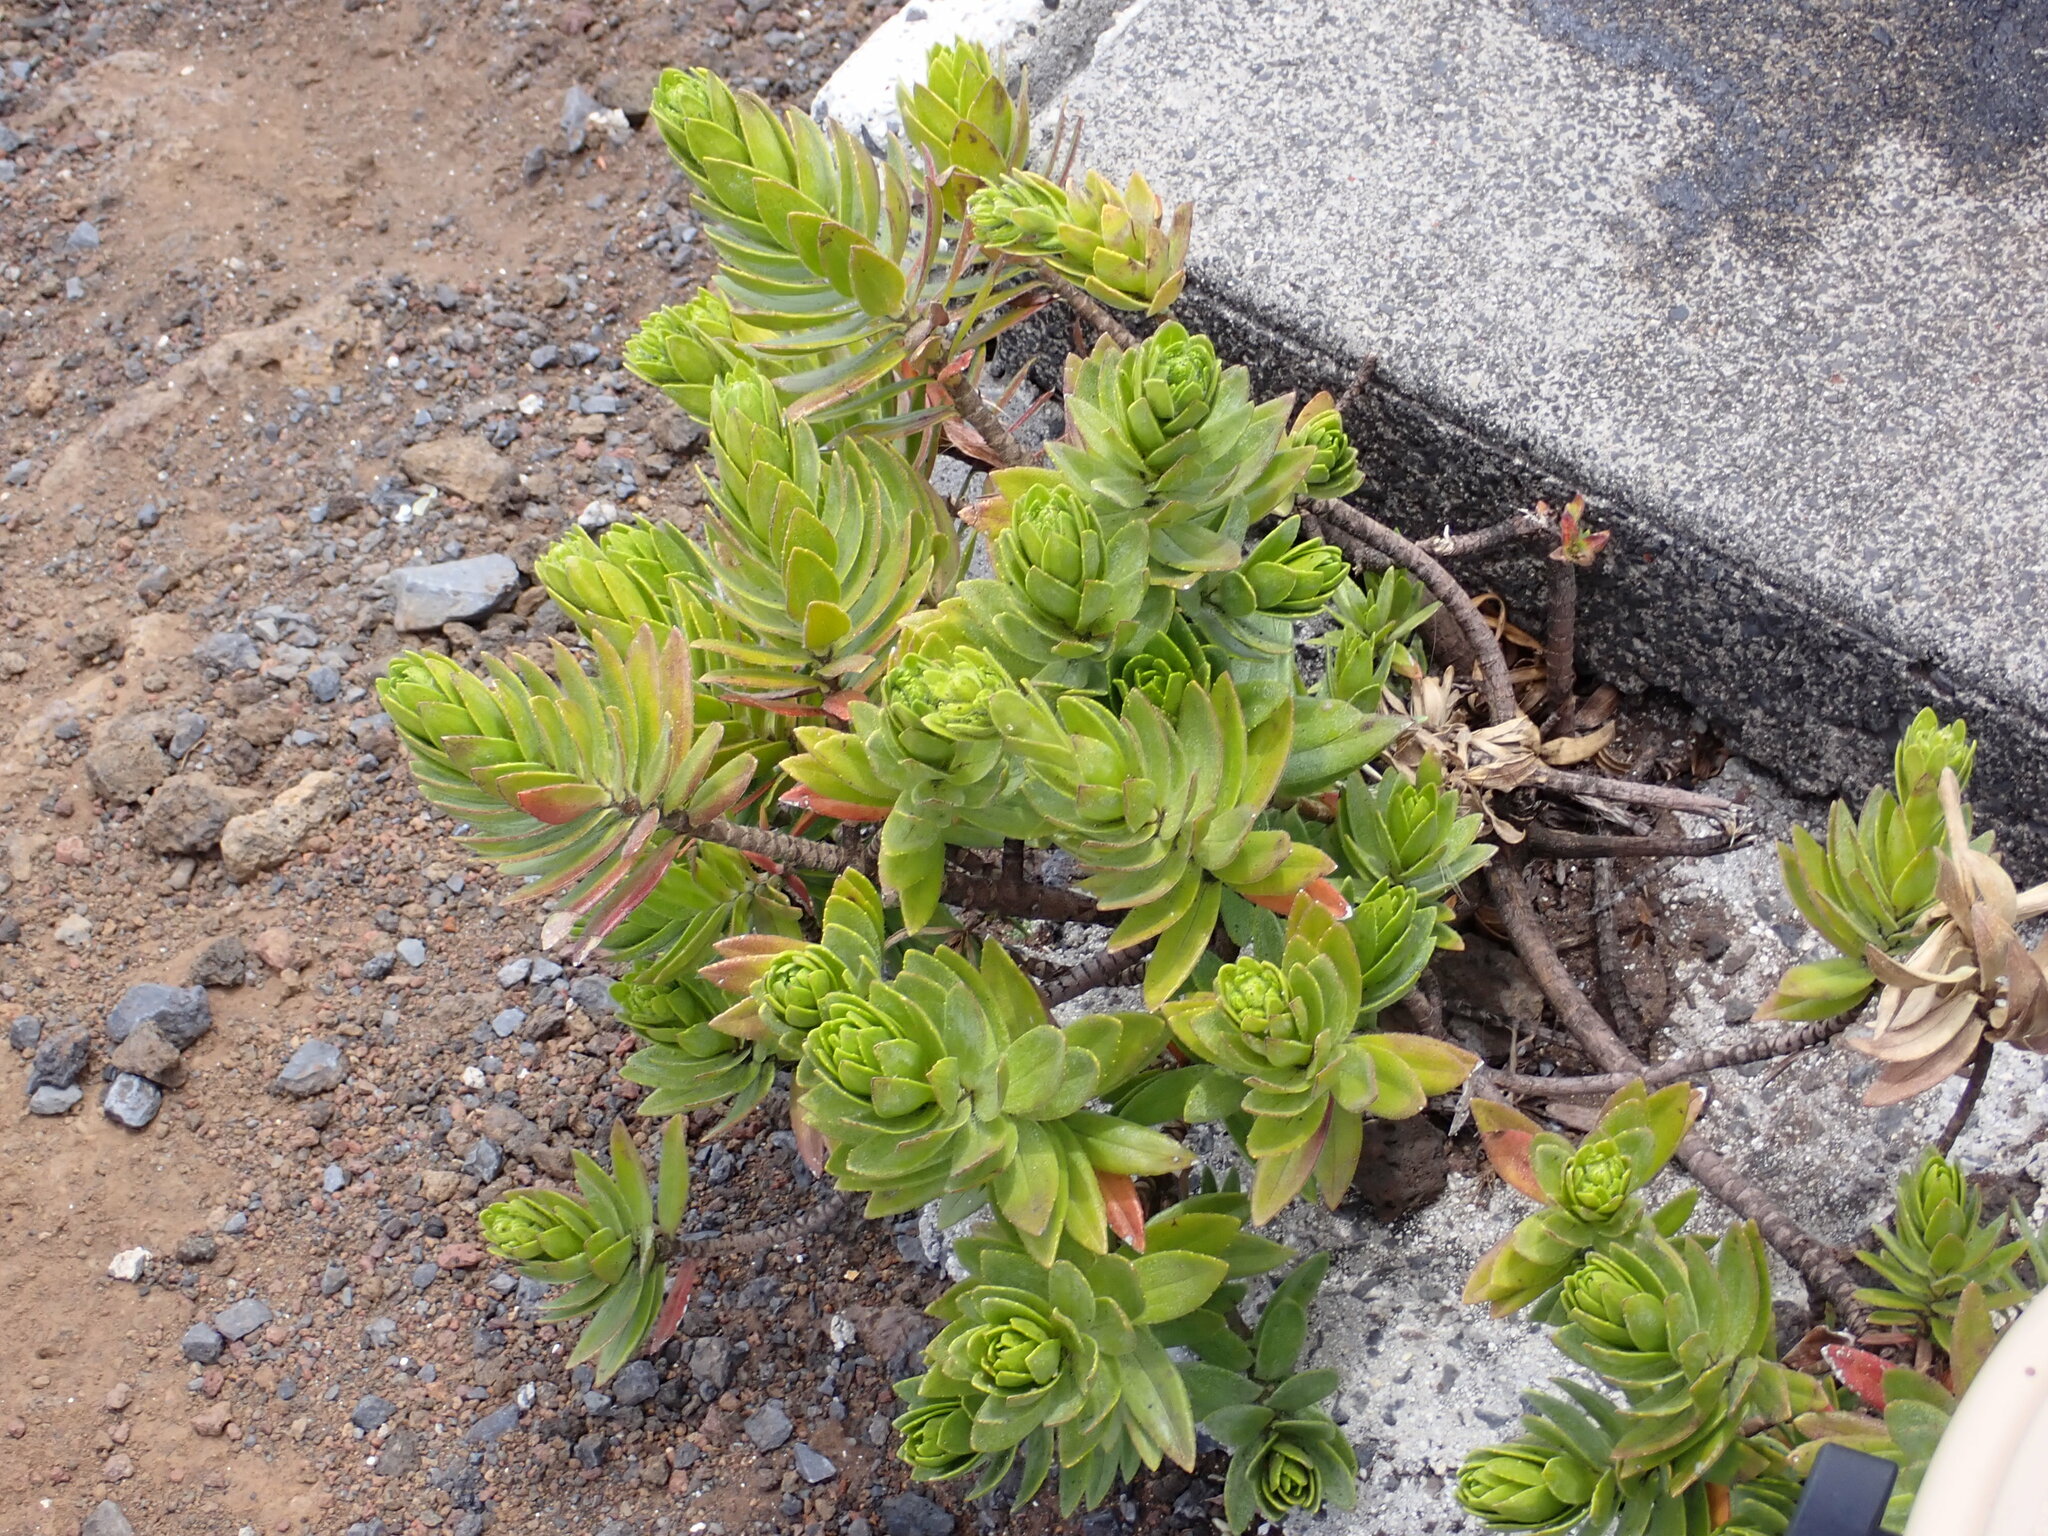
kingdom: Plantae
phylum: Tracheophyta
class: Magnoliopsida
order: Asterales
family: Asteraceae
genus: Dubautia
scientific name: Dubautia menziesii
